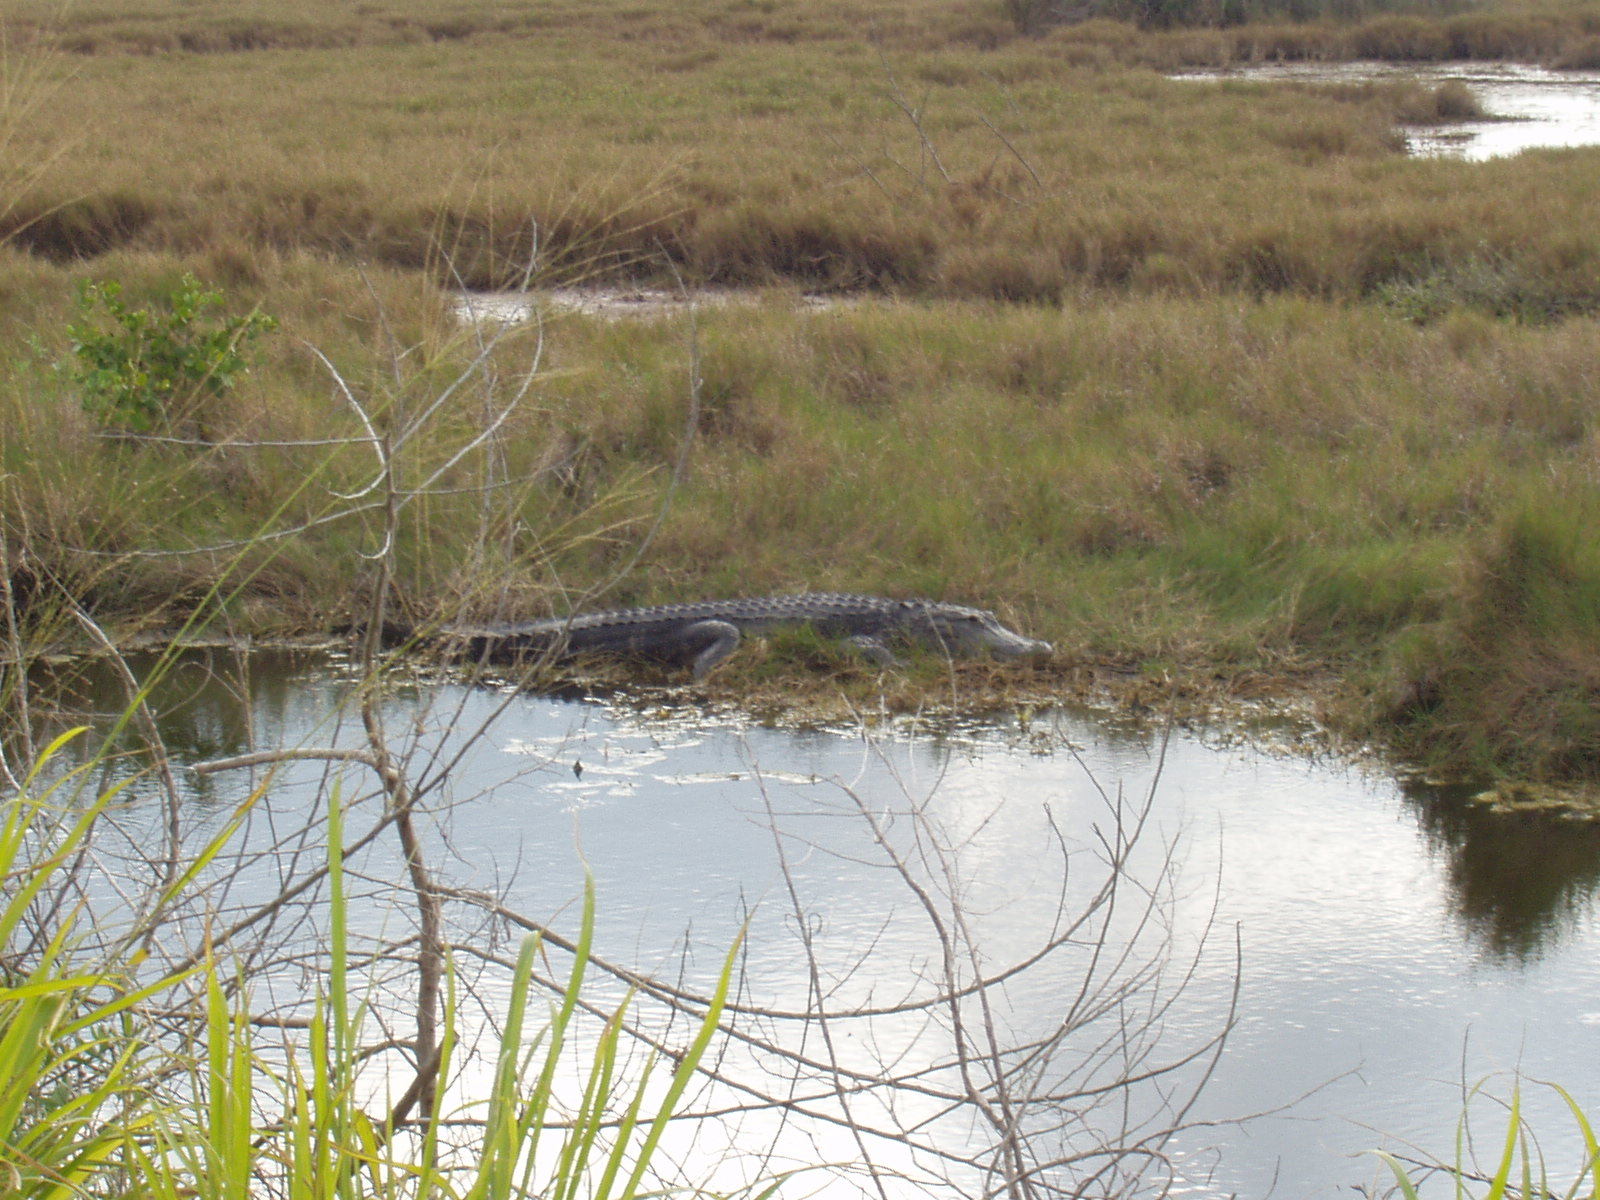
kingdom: Animalia
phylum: Chordata
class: Crocodylia
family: Alligatoridae
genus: Alligator
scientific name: Alligator mississippiensis
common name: American alligator
